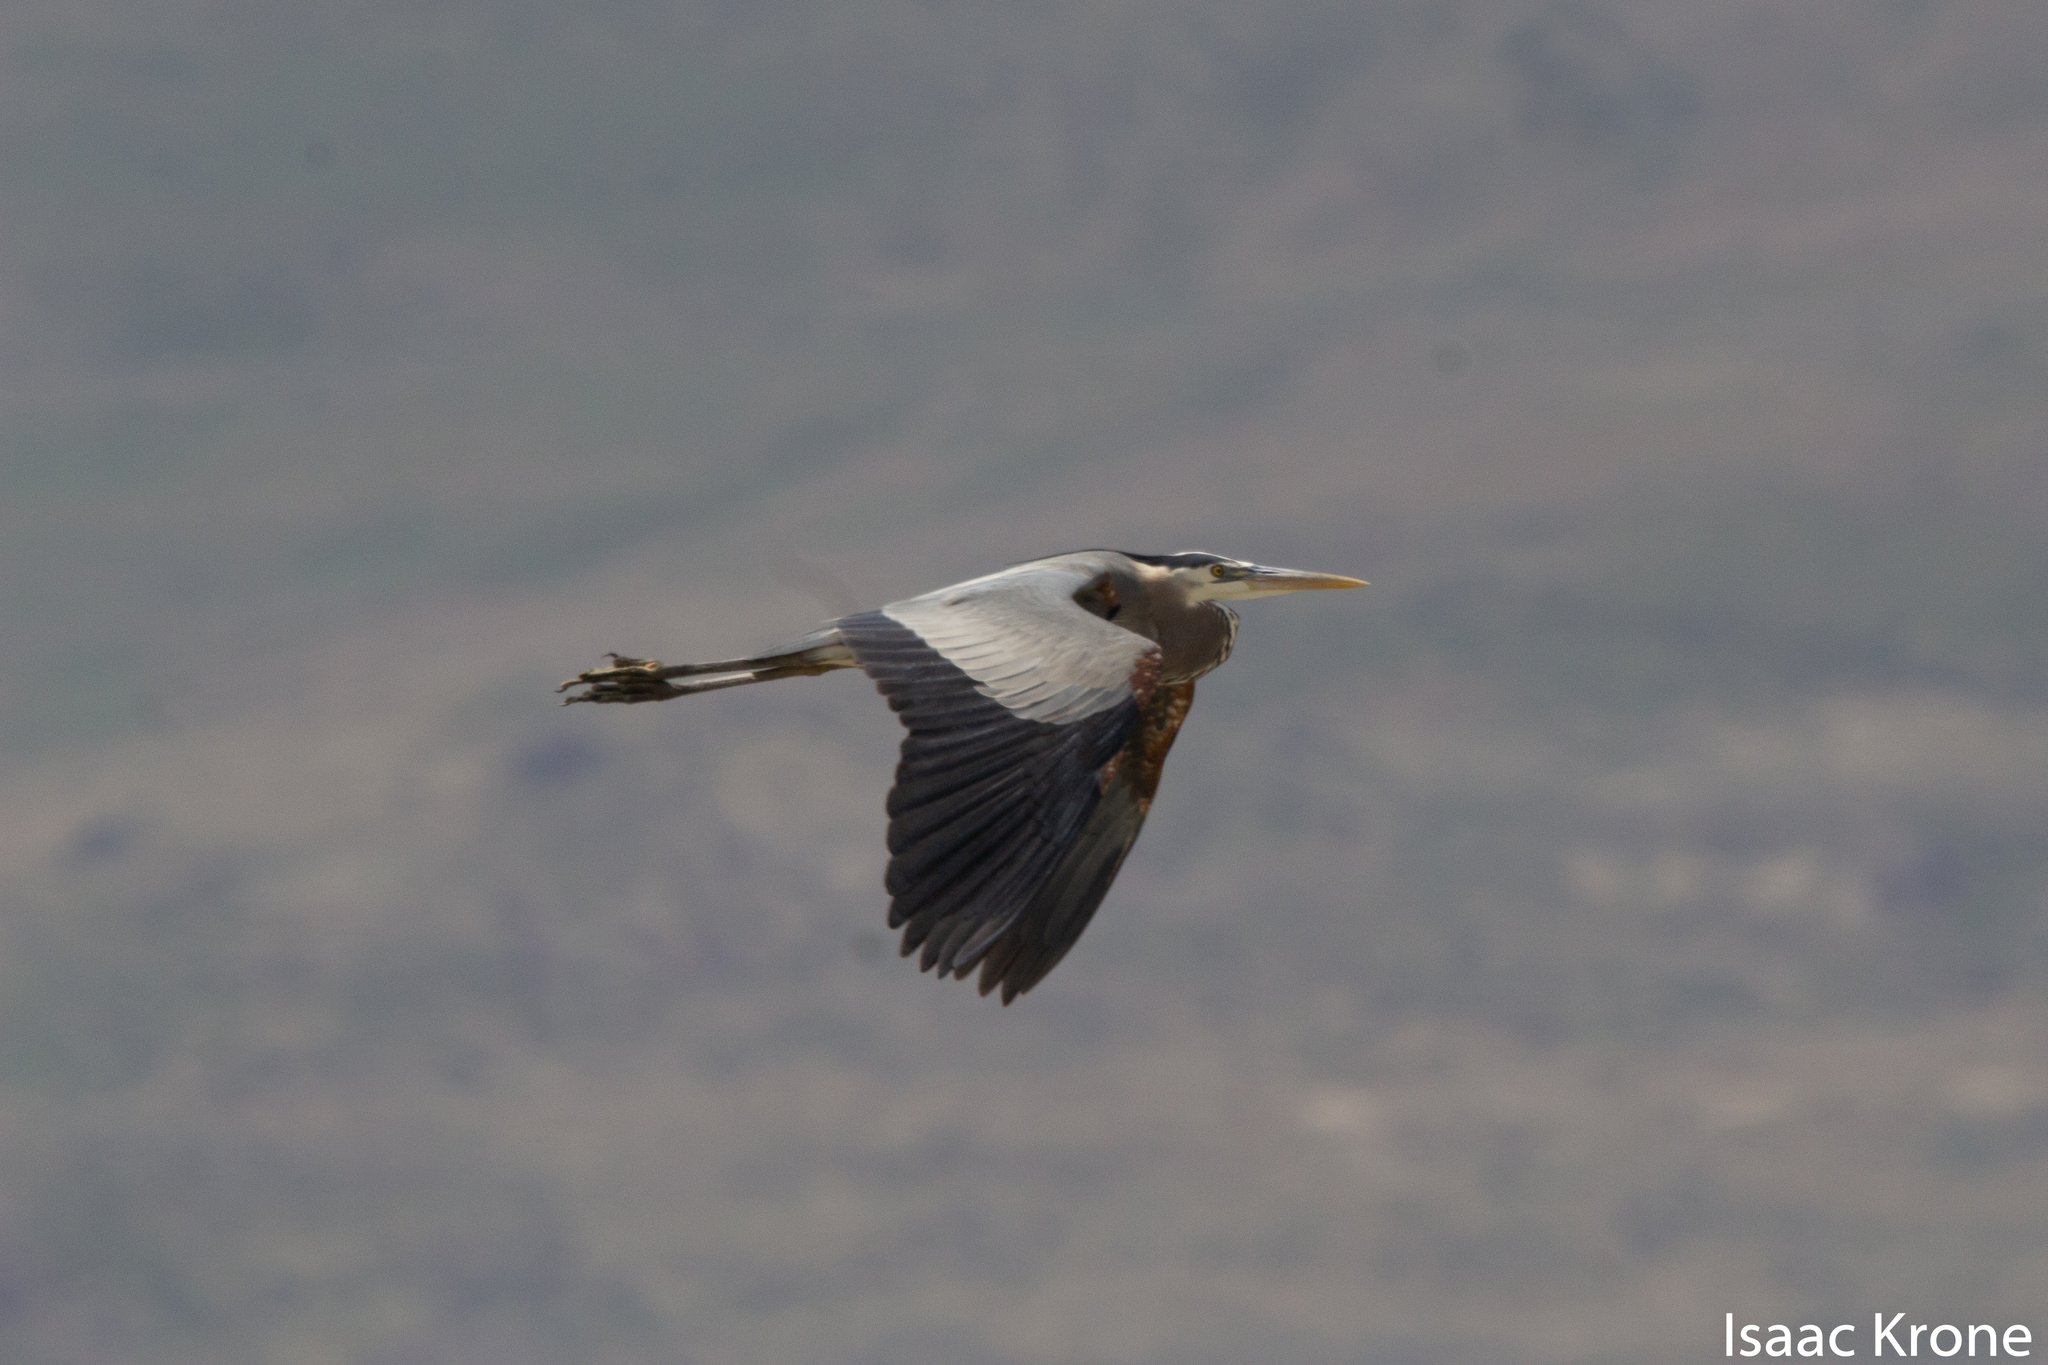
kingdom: Animalia
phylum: Chordata
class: Aves
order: Pelecaniformes
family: Ardeidae
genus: Ardea
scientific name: Ardea herodias
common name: Great blue heron
